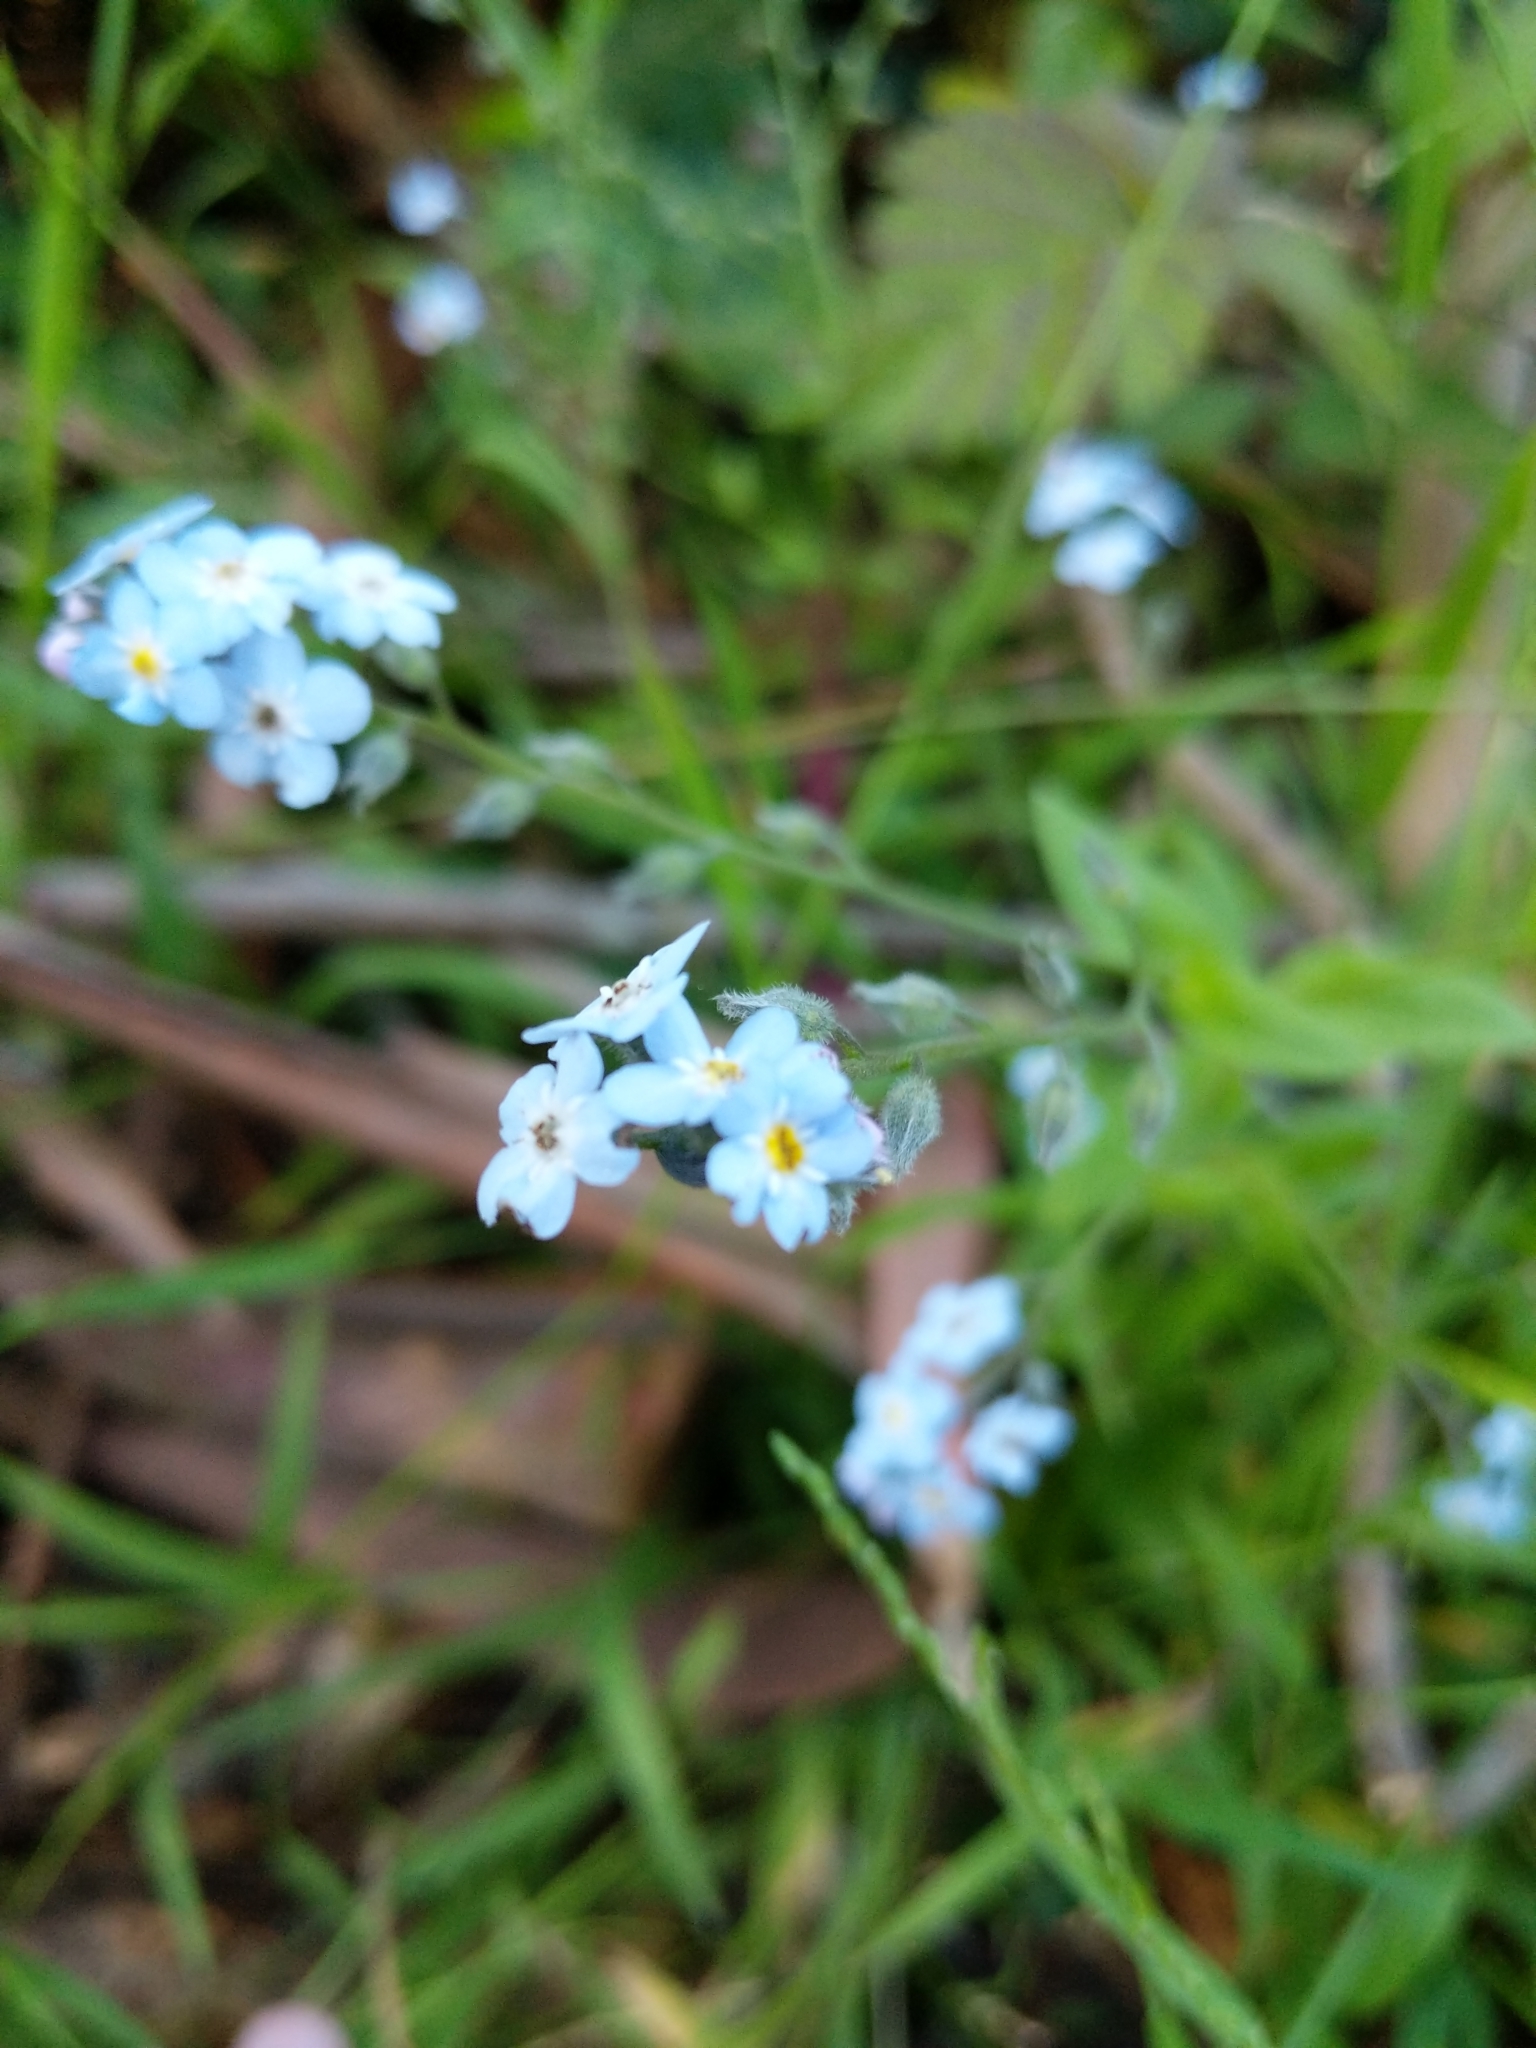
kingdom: Plantae
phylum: Tracheophyta
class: Magnoliopsida
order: Boraginales
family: Boraginaceae
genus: Myosotis
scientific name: Myosotis latifolia
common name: Broadleaf forget-me-not
